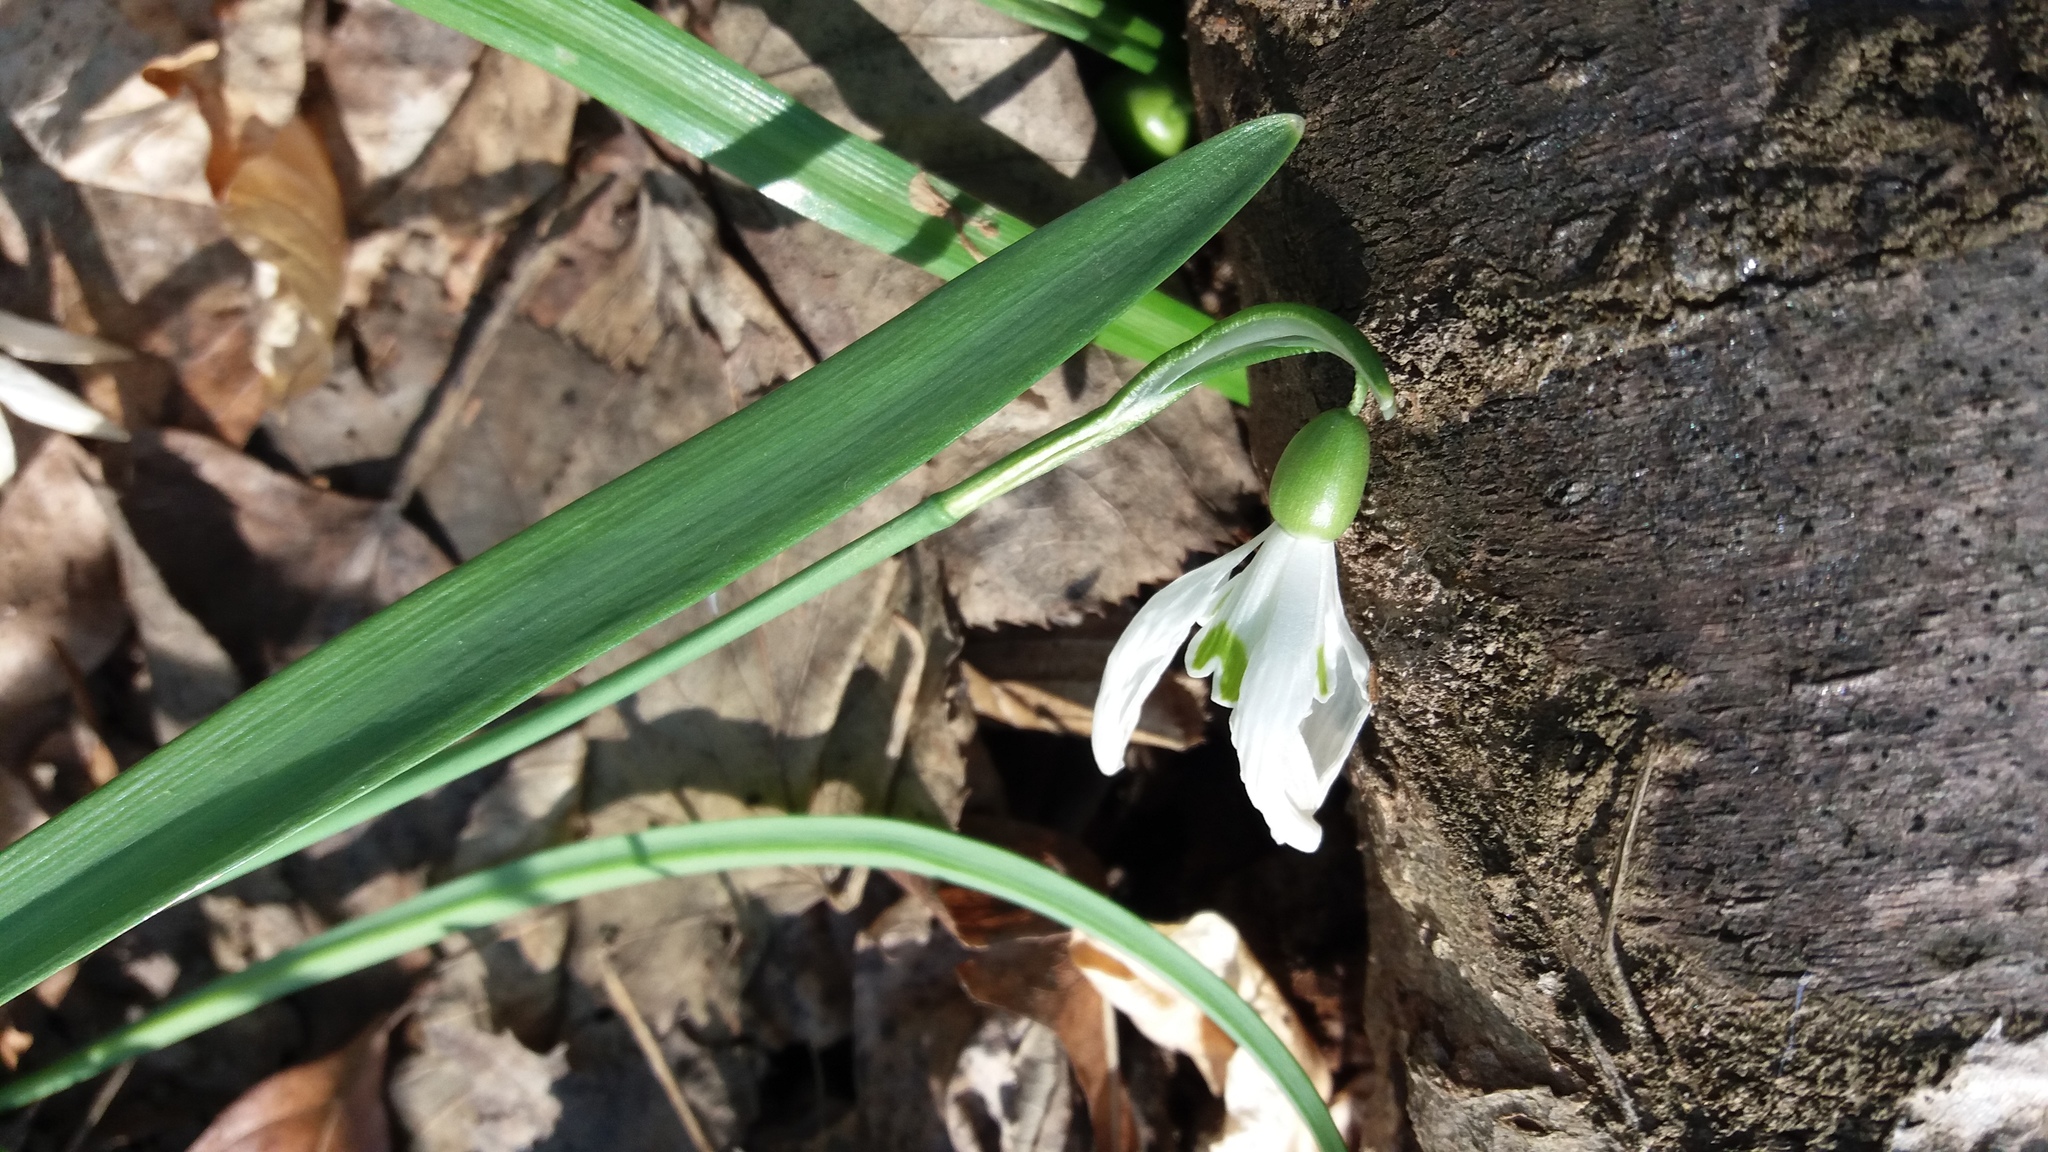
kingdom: Plantae
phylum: Tracheophyta
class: Liliopsida
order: Asparagales
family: Amaryllidaceae
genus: Galanthus
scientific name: Galanthus nivalis
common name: Snowdrop
